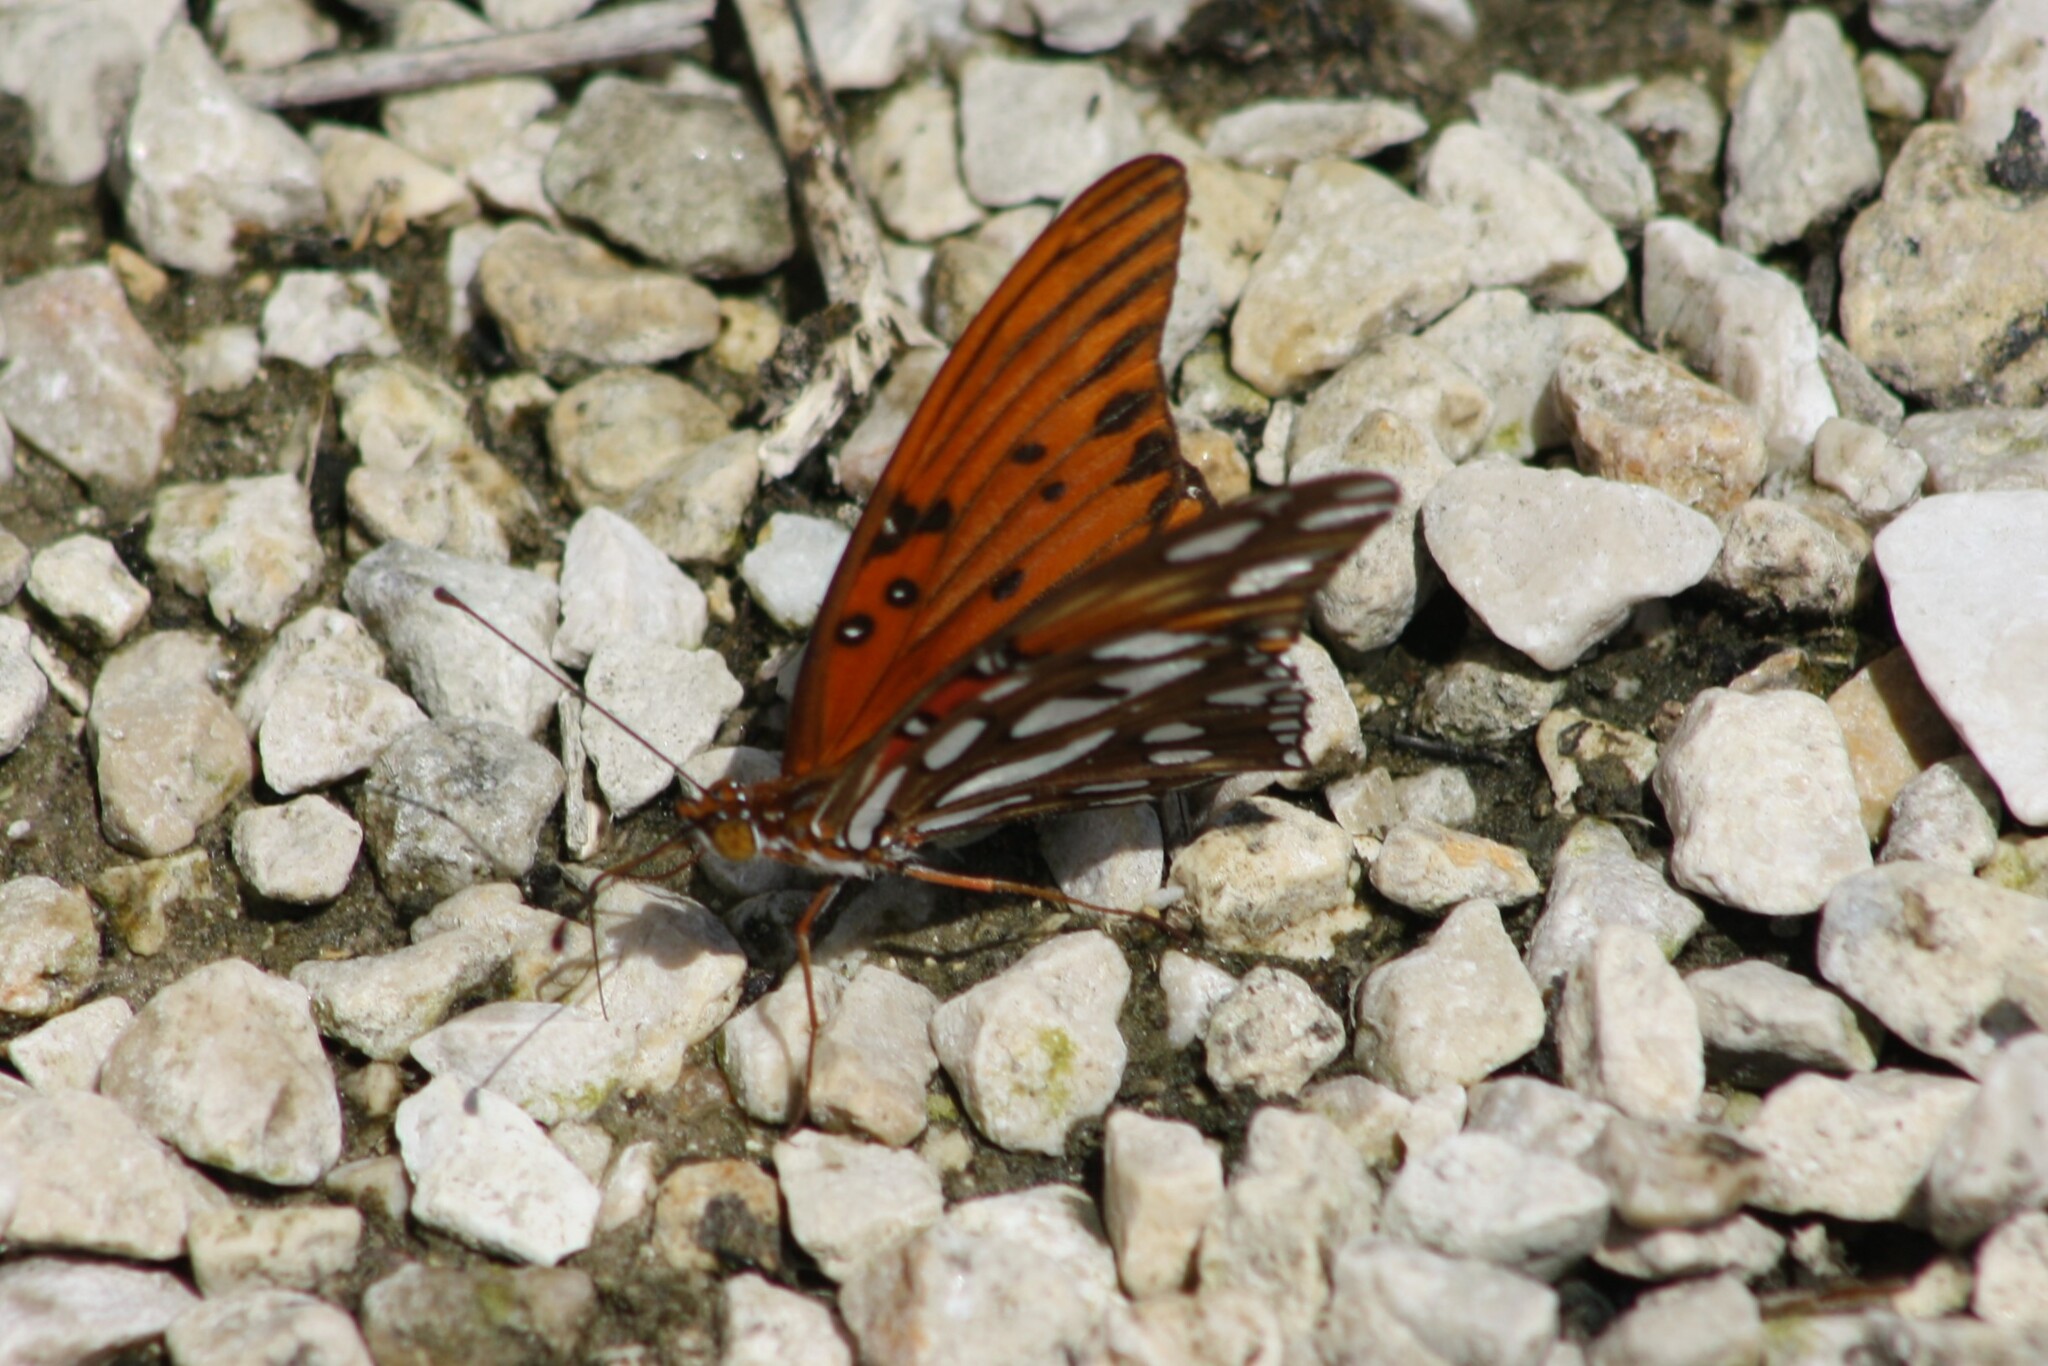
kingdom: Animalia
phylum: Arthropoda
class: Insecta
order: Lepidoptera
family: Nymphalidae
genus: Dione
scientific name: Dione vanillae
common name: Gulf fritillary
